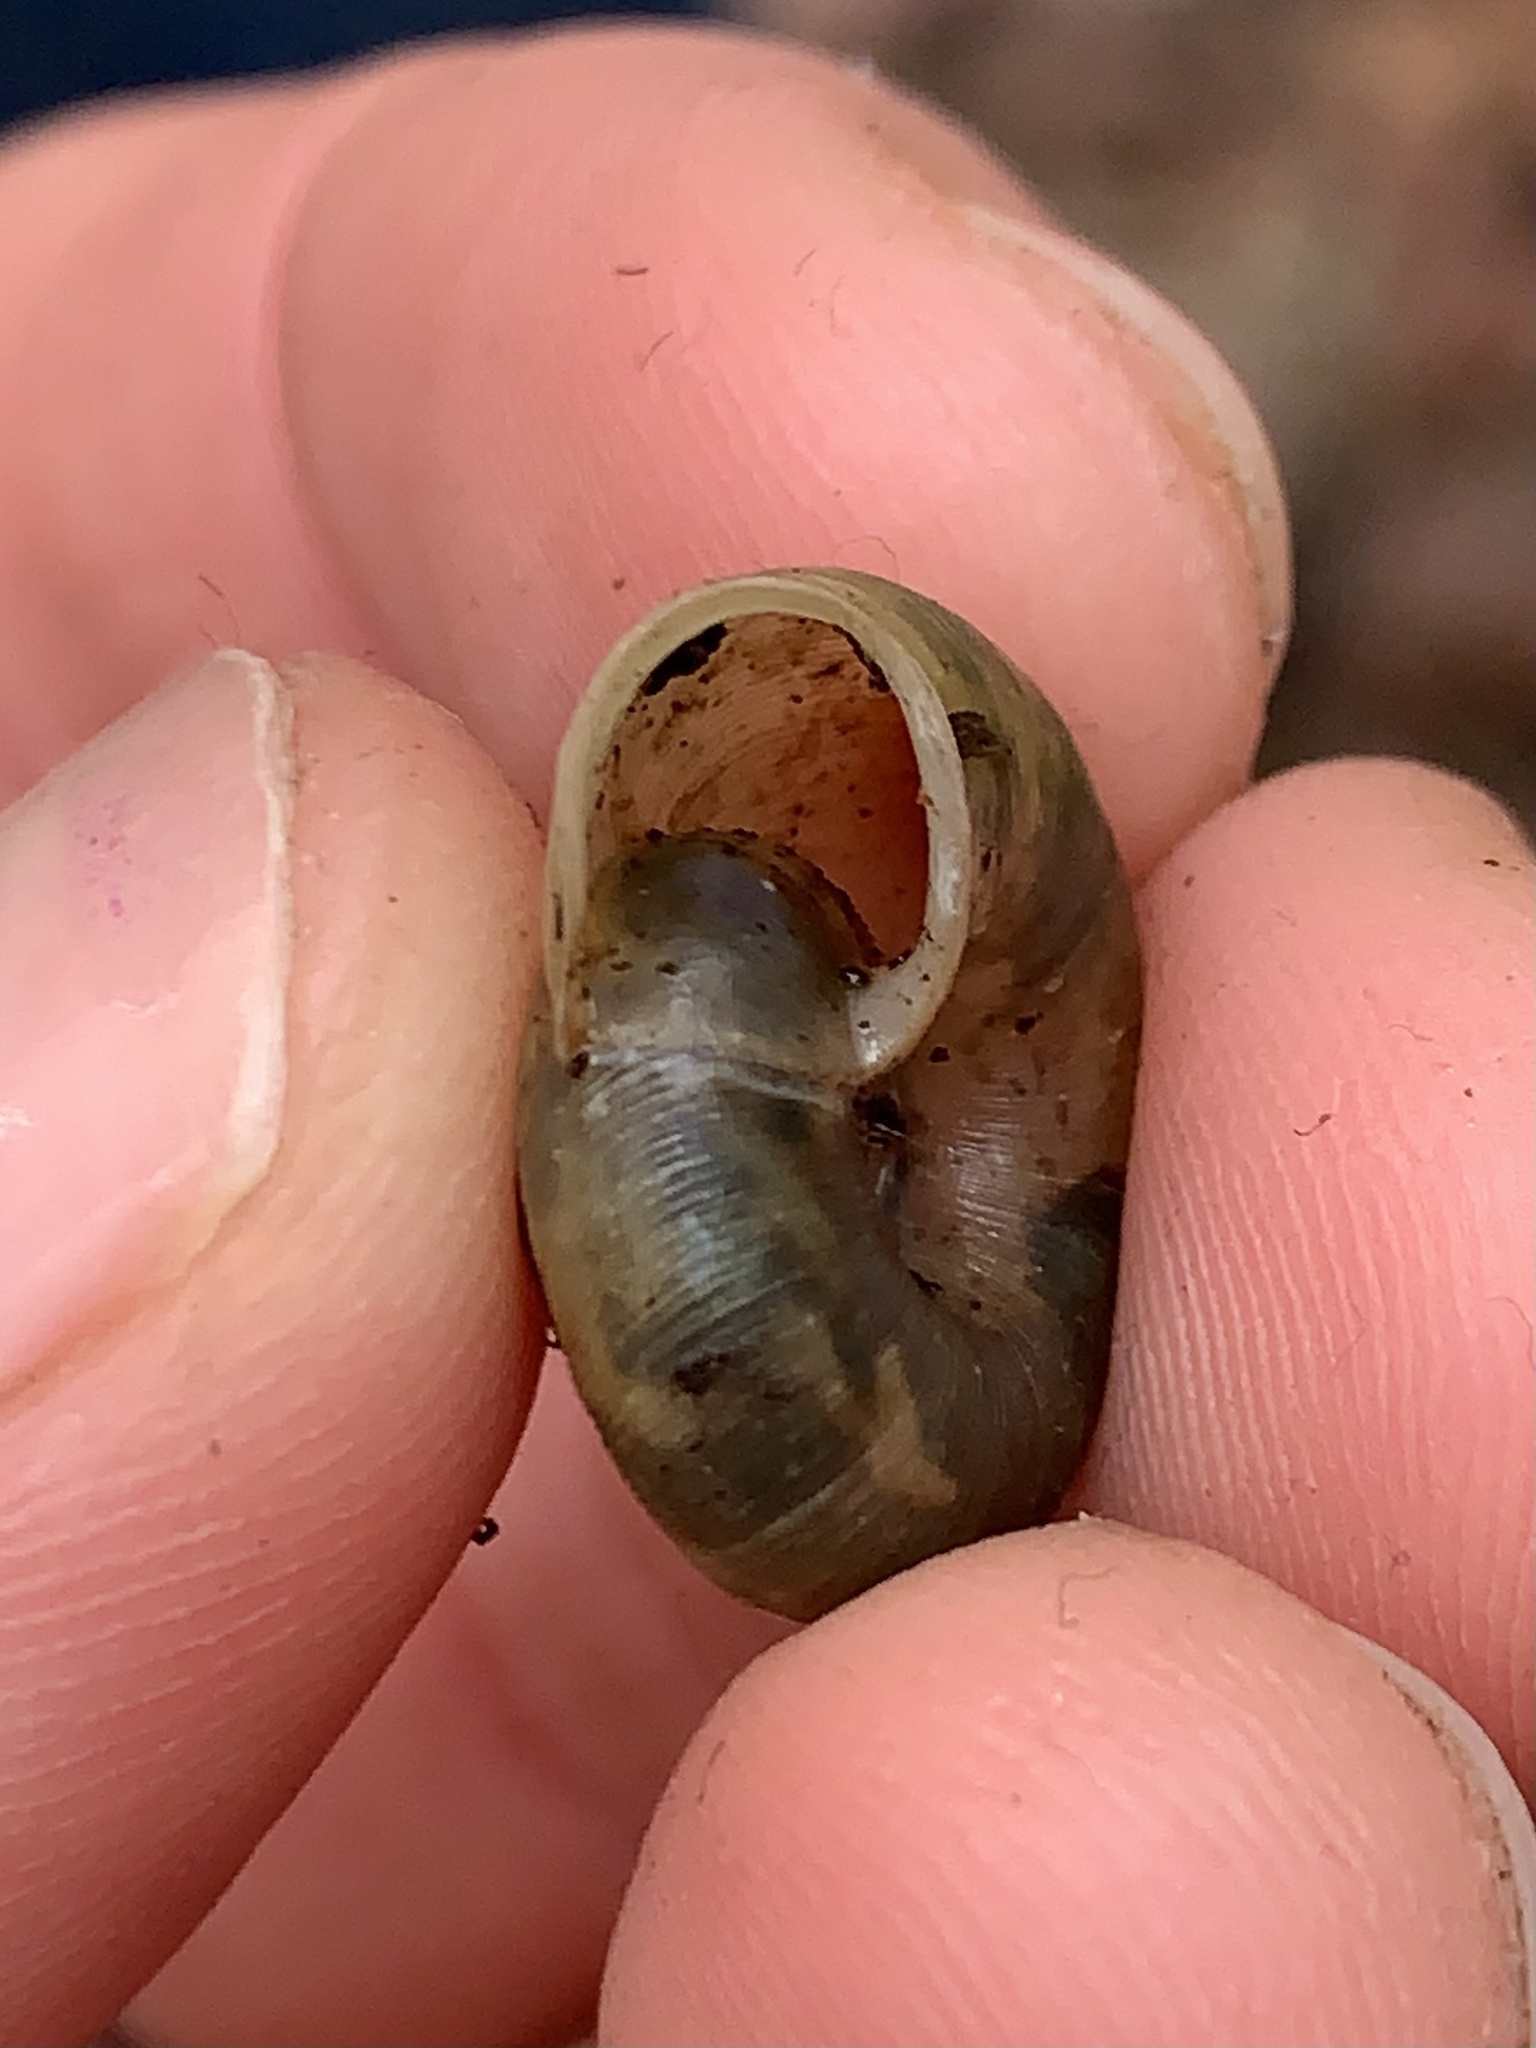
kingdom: Animalia
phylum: Mollusca
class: Gastropoda
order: Stylommatophora
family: Haplotrematidae
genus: Ancotrema
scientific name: Ancotrema sportella
